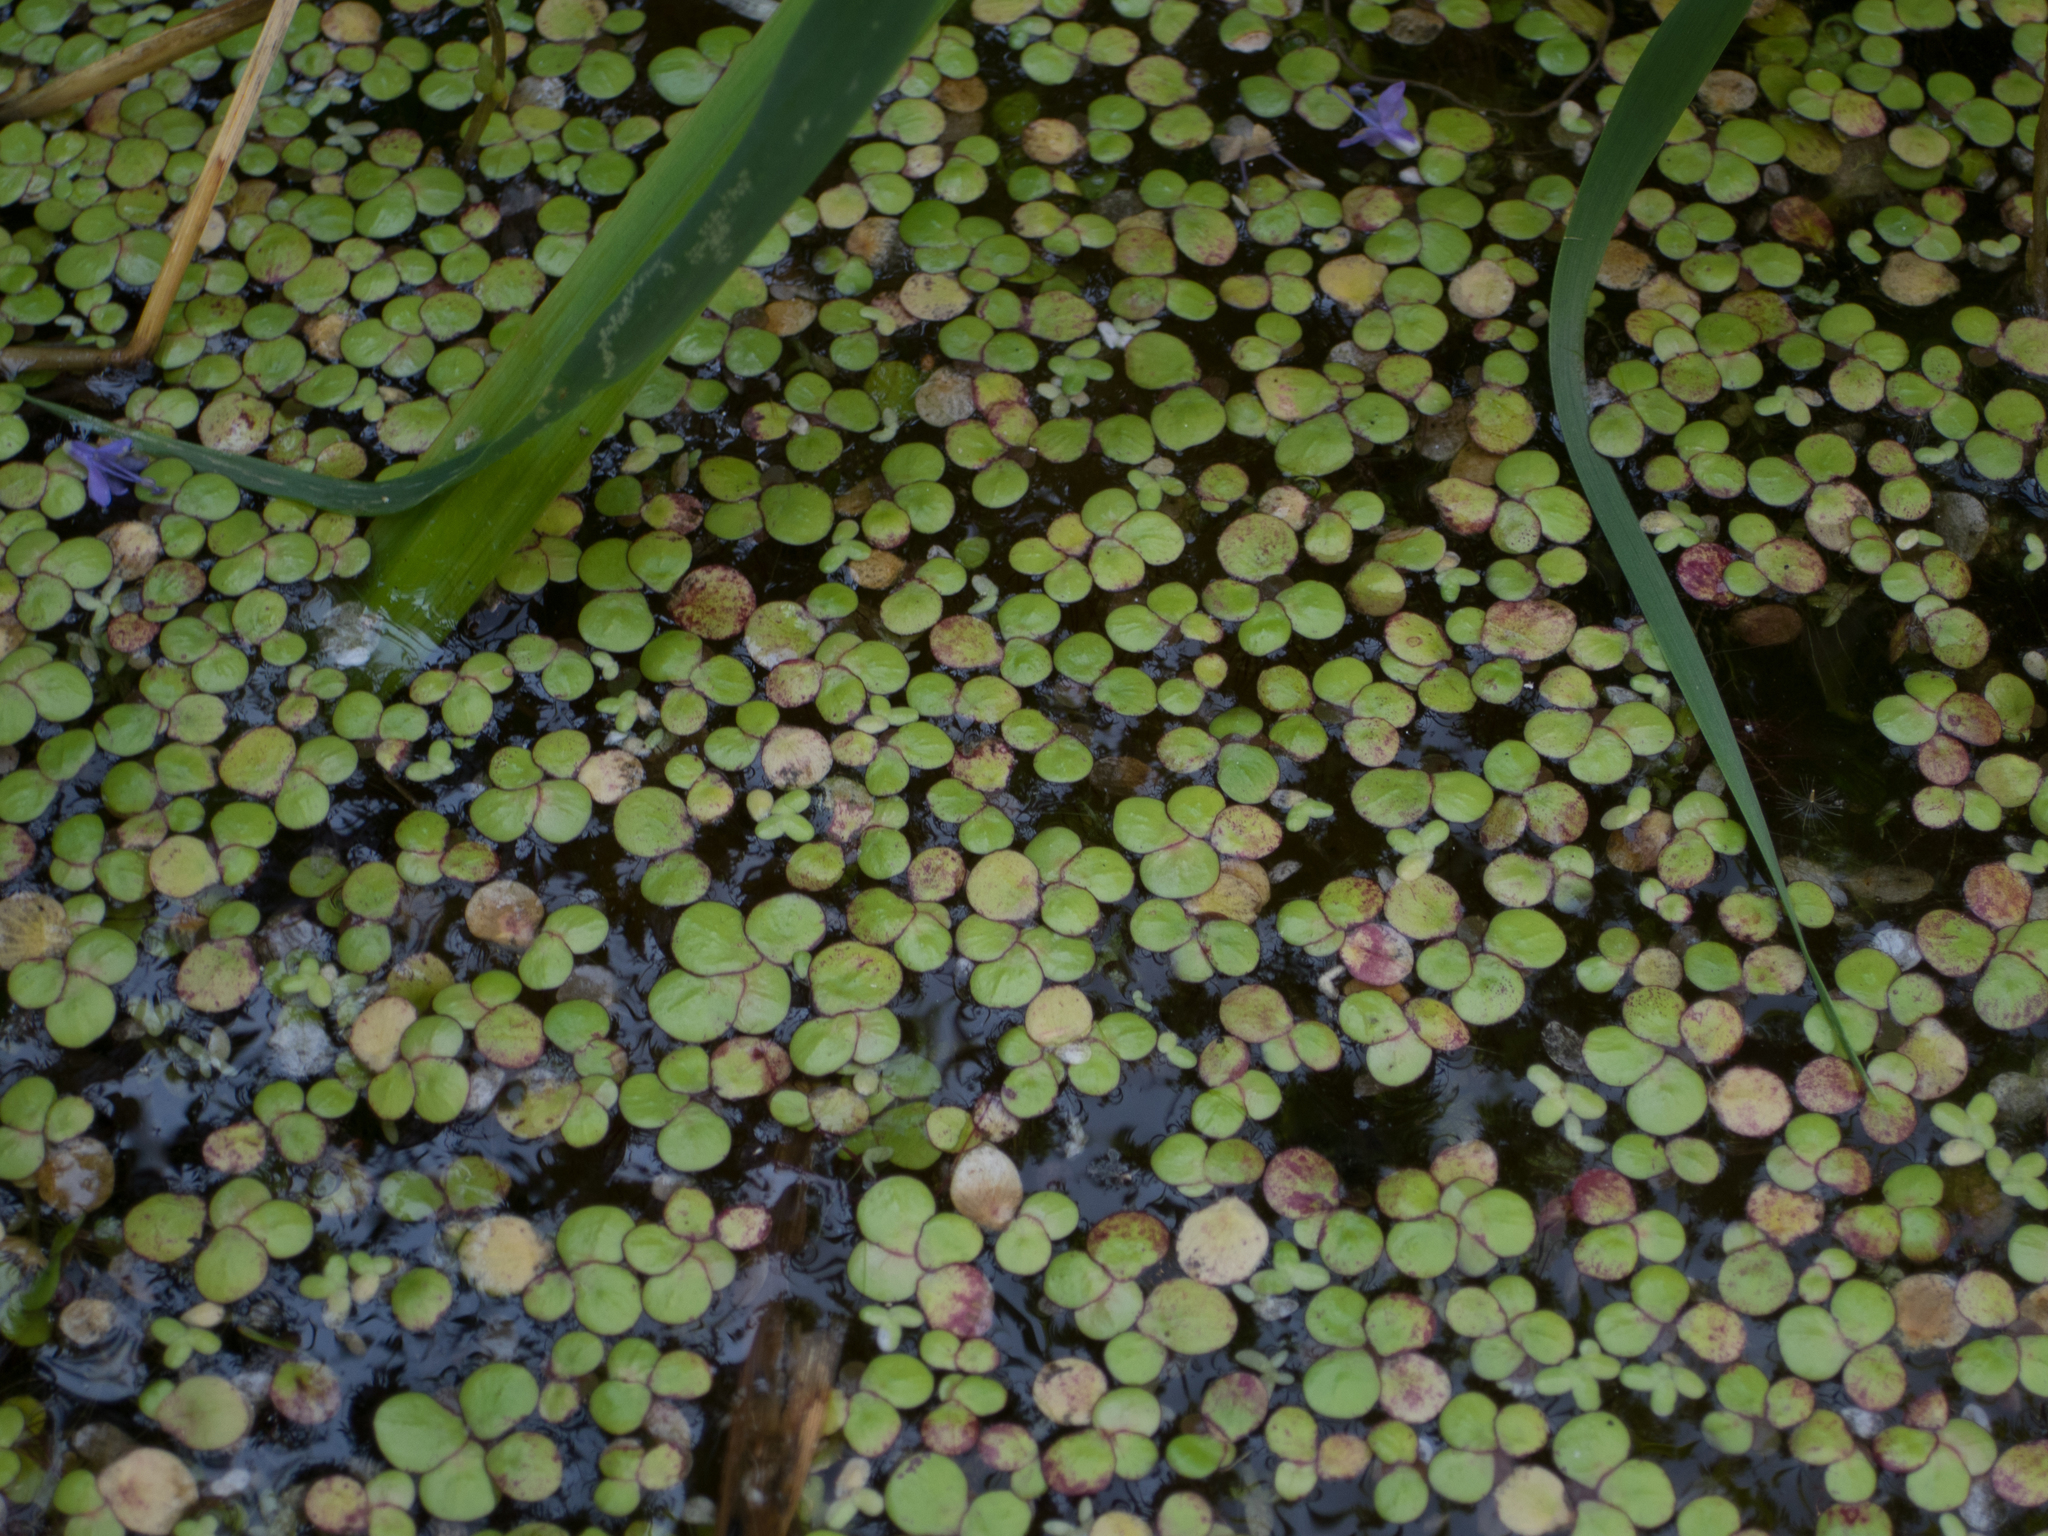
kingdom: Plantae
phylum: Tracheophyta
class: Liliopsida
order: Alismatales
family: Araceae
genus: Spirodela
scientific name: Spirodela polyrhiza
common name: Great duckweed
